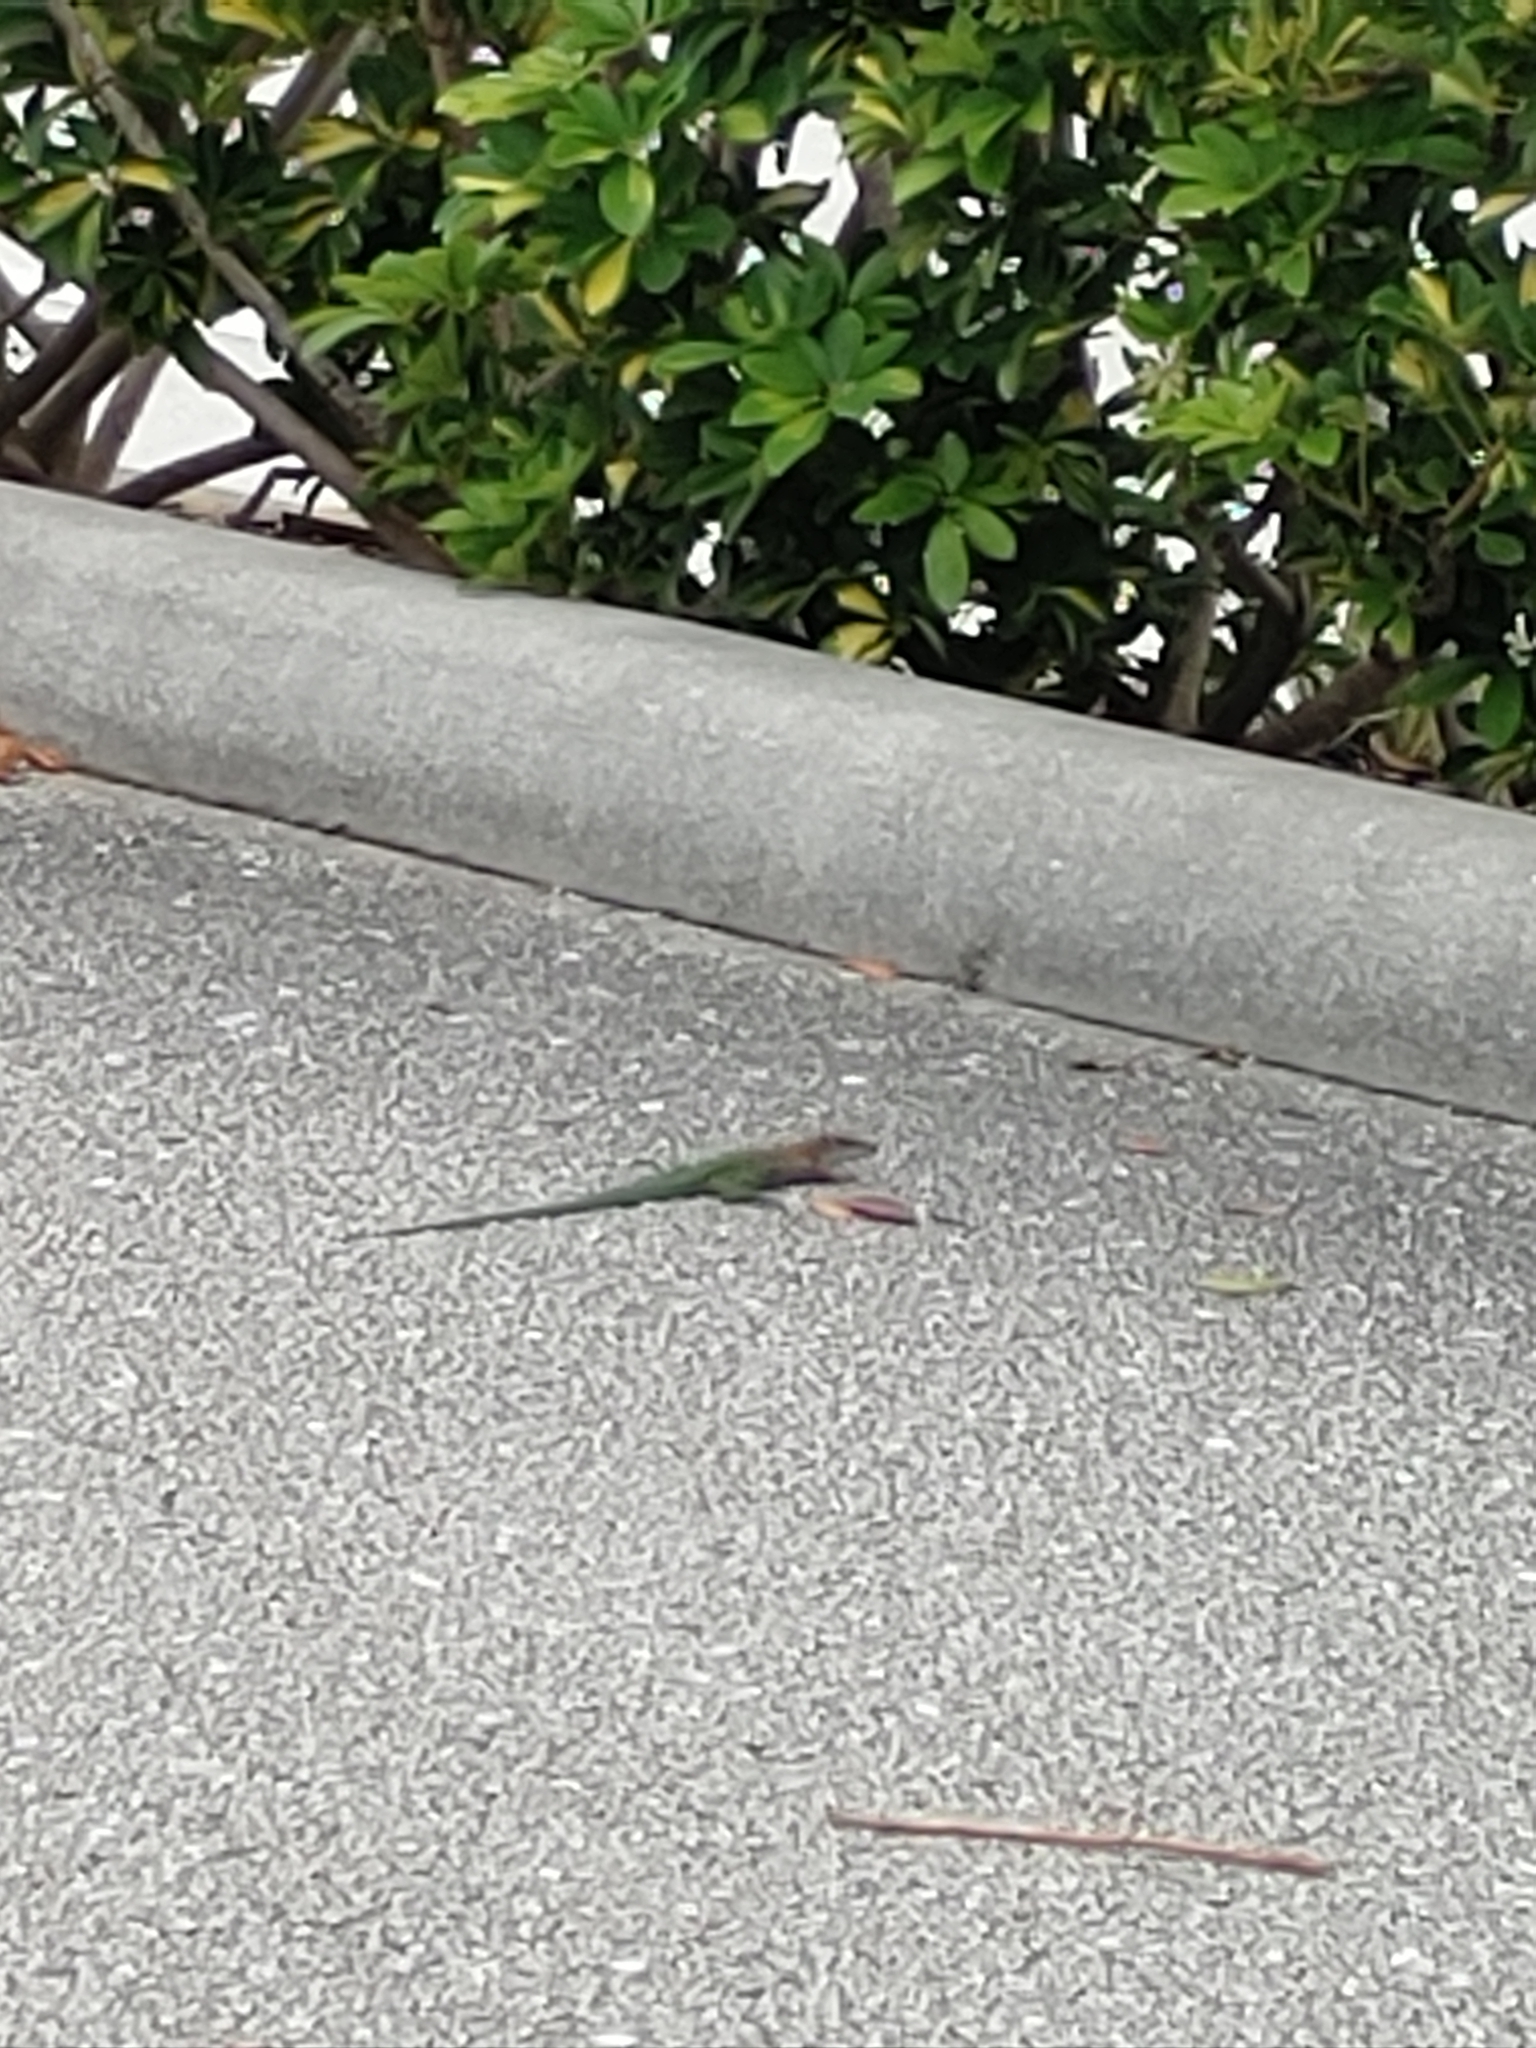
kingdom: Animalia
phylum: Chordata
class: Squamata
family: Teiidae
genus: Ameiva
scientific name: Ameiva ameiva
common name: Giant ameiva
